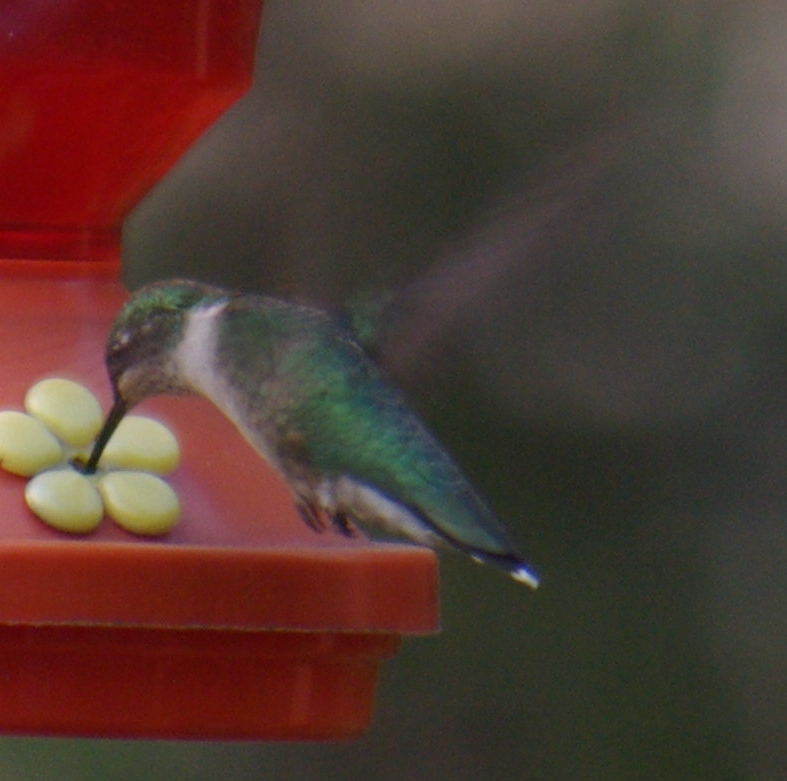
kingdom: Animalia
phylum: Chordata
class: Aves
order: Apodiformes
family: Trochilidae
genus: Archilochus
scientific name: Archilochus colubris
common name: Ruby-throated hummingbird
